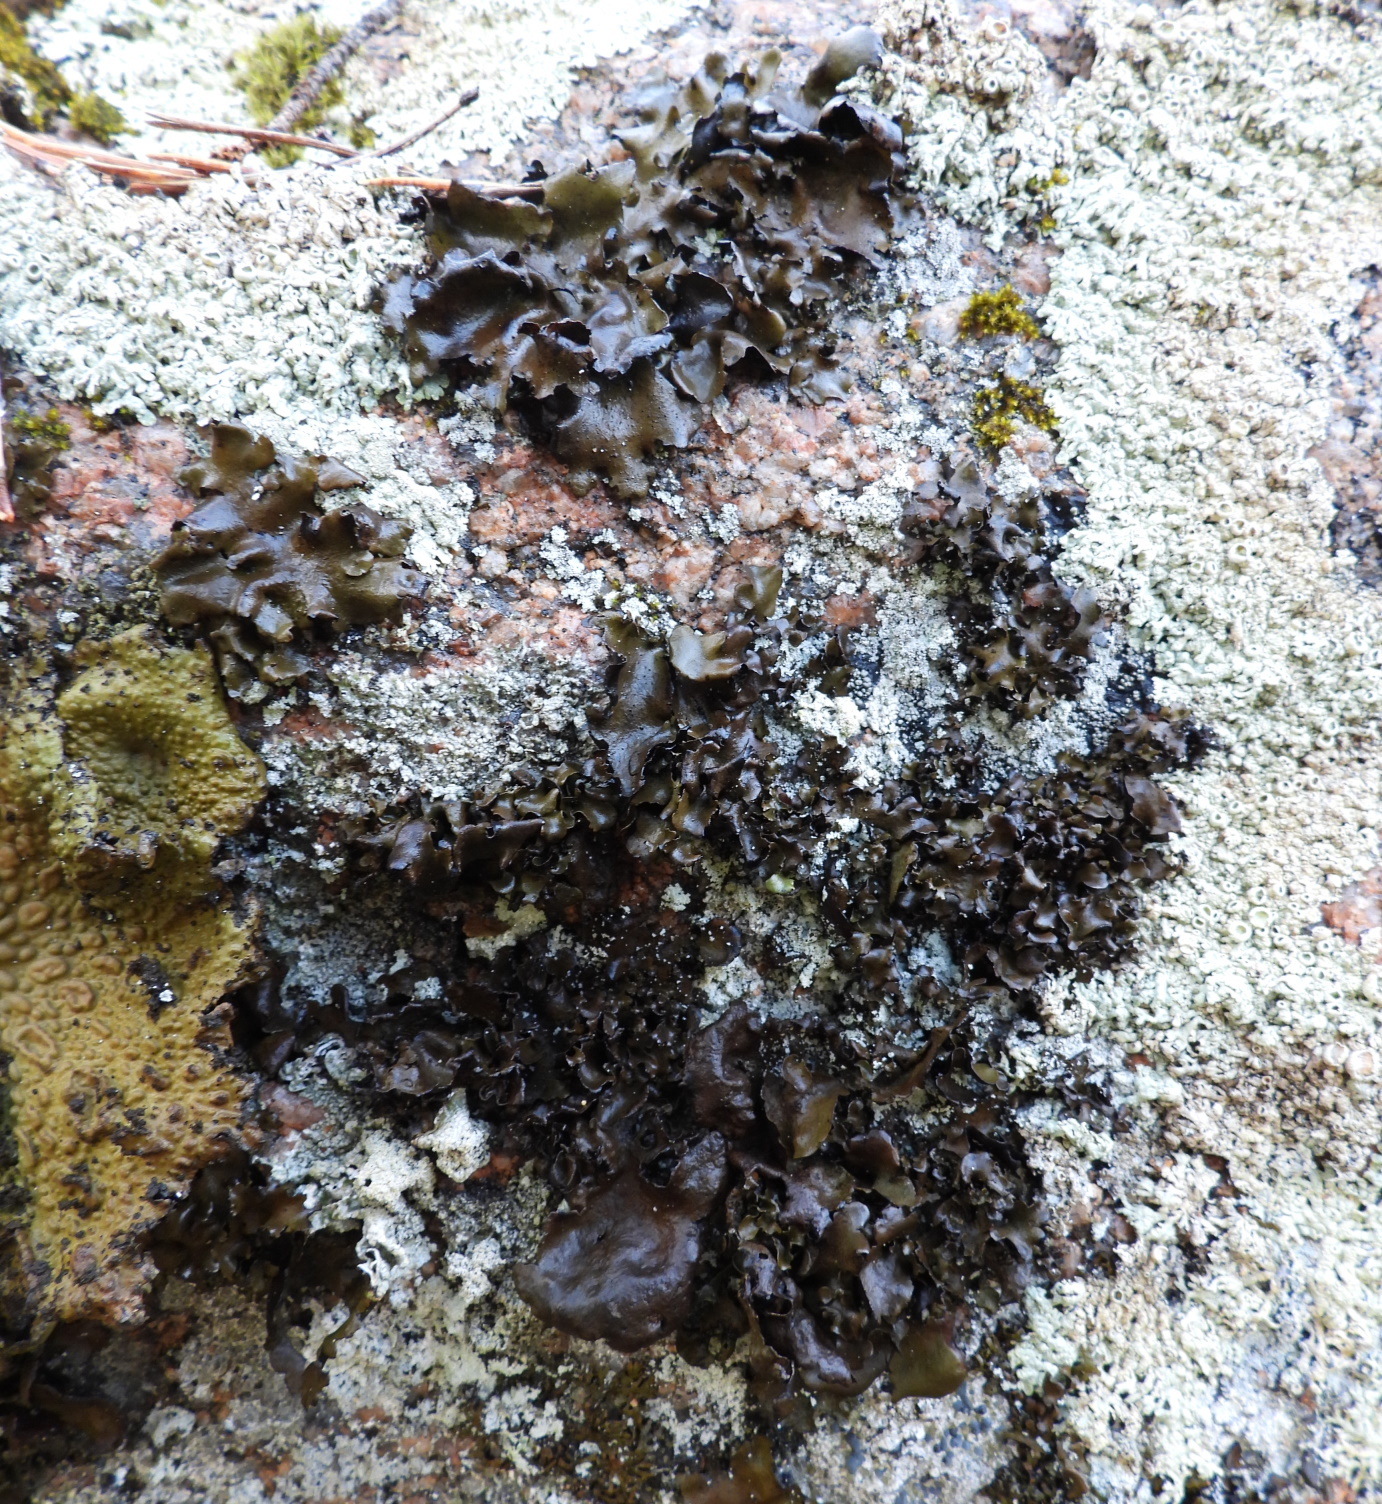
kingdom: Fungi
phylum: Ascomycota
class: Lecanoromycetes
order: Umbilicariales
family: Umbilicariaceae
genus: Umbilicaria
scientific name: Umbilicaria polyphylla
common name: Petalled rocktripe lichen
